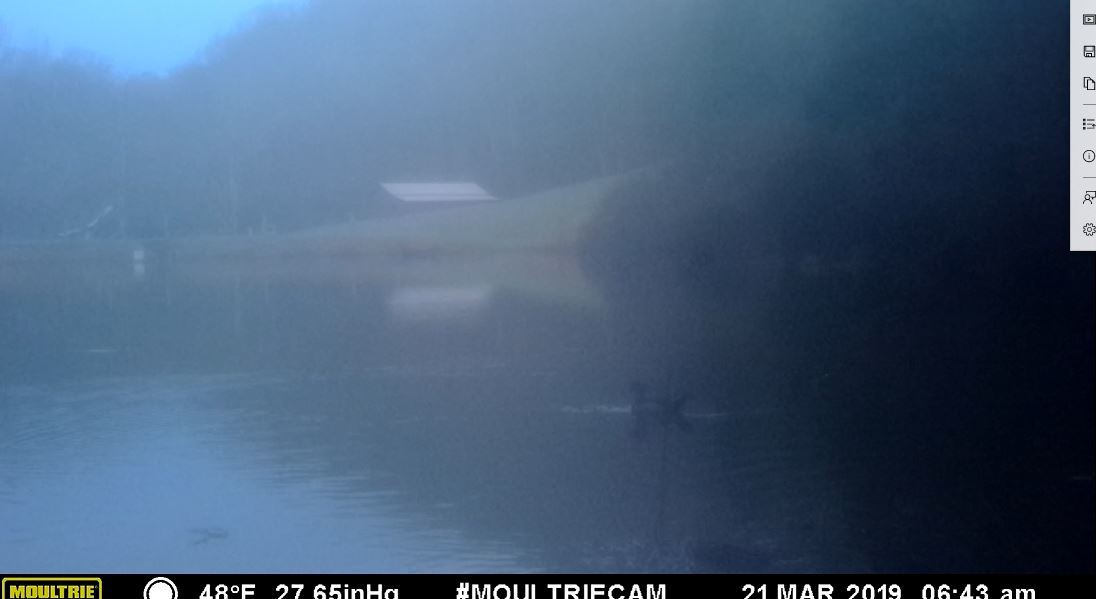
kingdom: Animalia
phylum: Chordata
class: Aves
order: Anseriformes
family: Anatidae
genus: Aix
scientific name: Aix sponsa
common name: Wood duck
